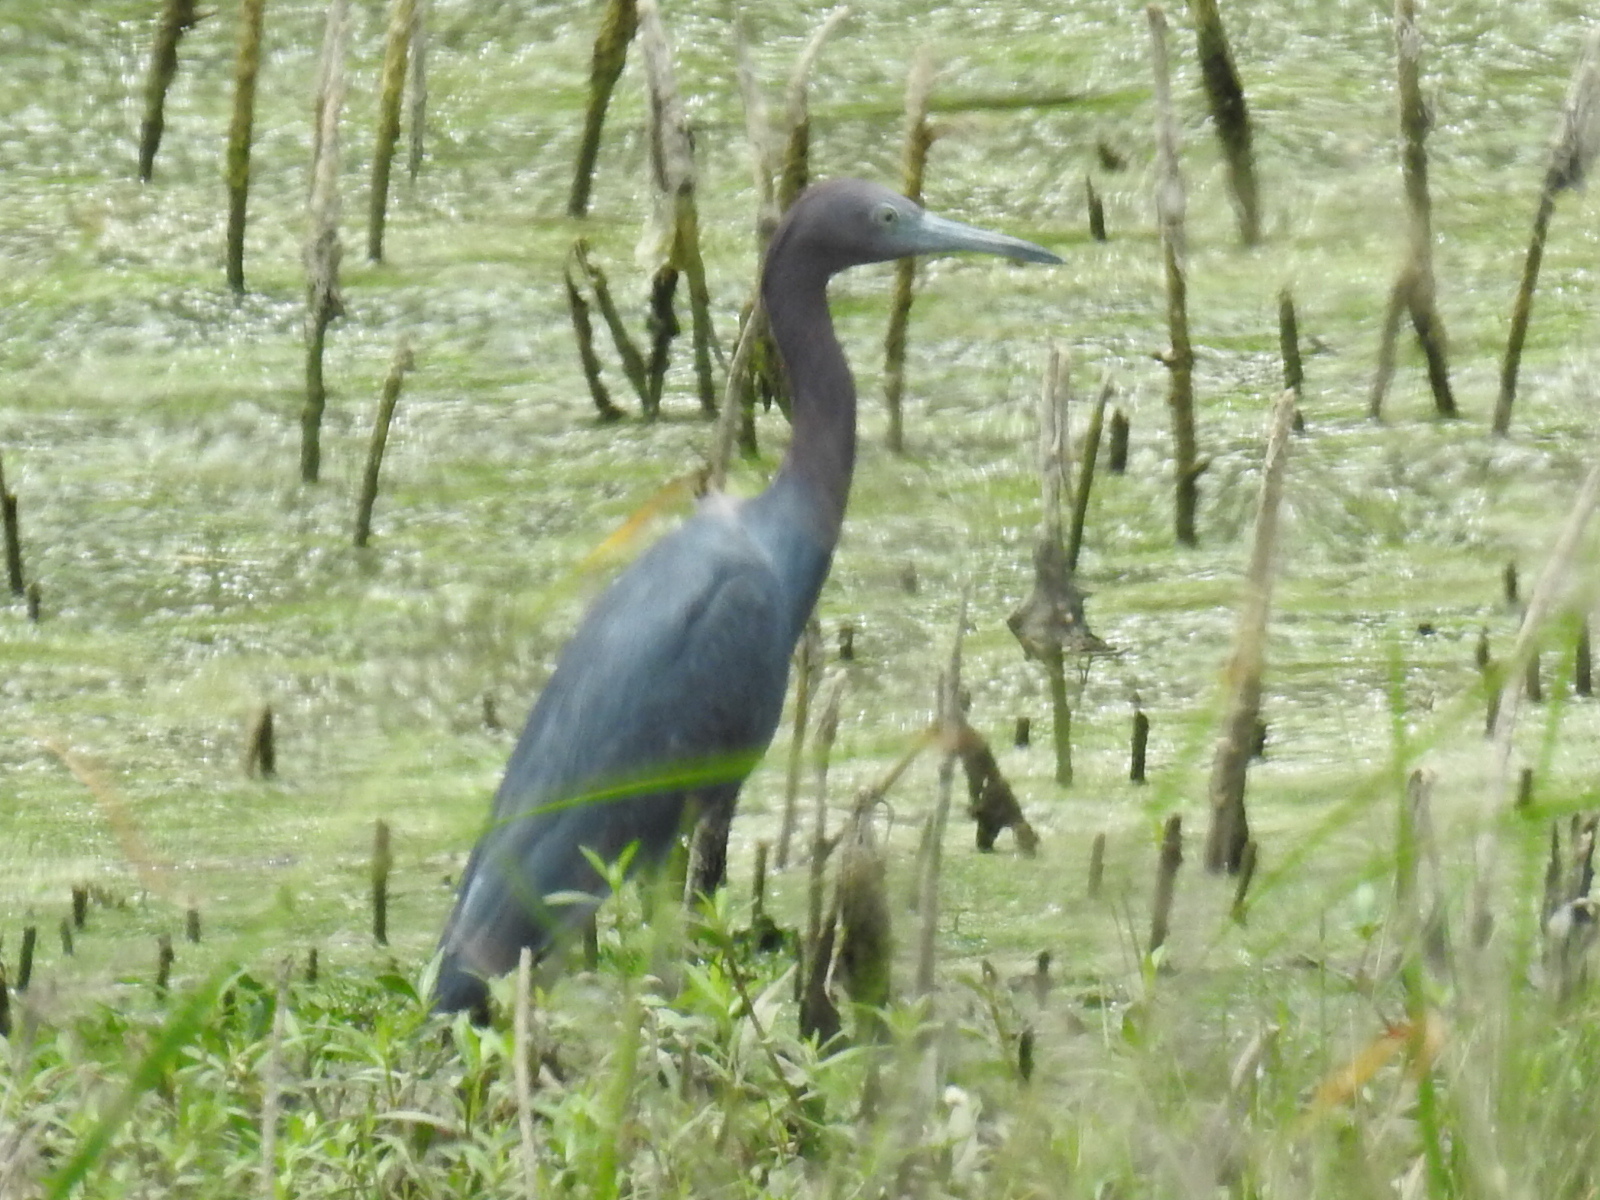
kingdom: Animalia
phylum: Chordata
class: Aves
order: Pelecaniformes
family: Ardeidae
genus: Egretta
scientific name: Egretta caerulea
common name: Little blue heron
